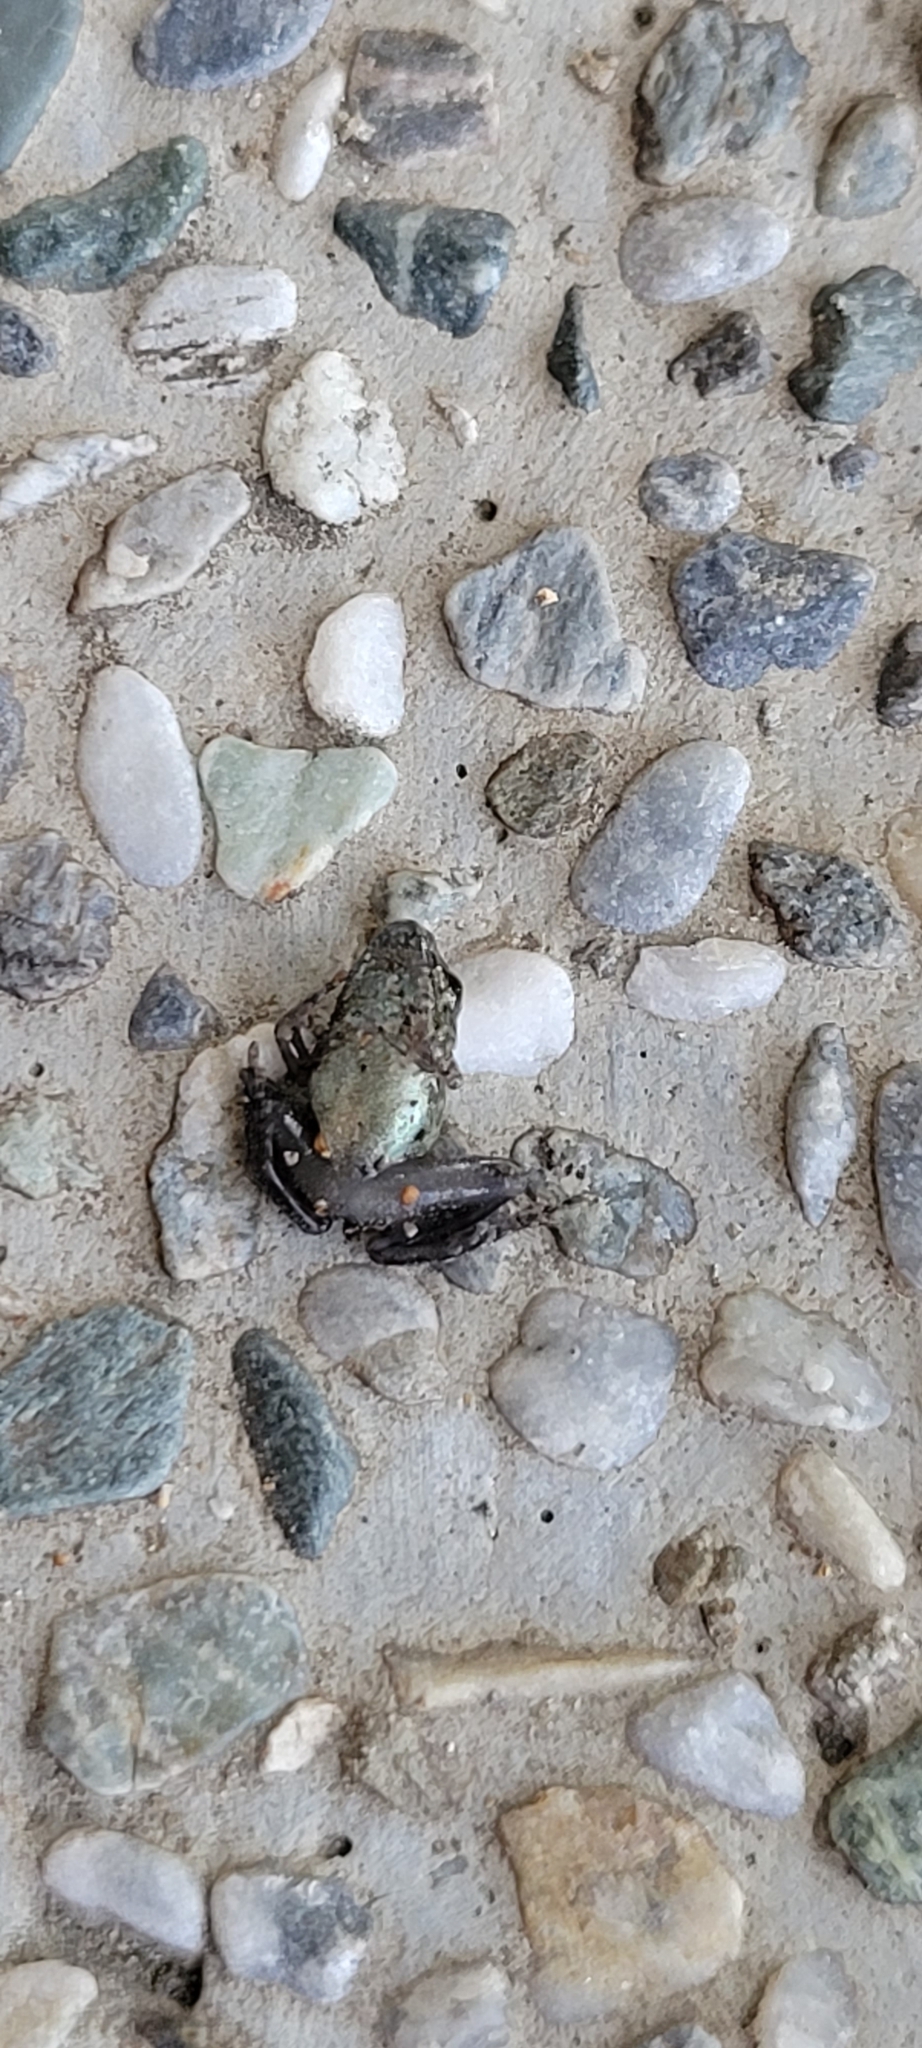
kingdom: Animalia
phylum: Chordata
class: Amphibia
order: Anura
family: Rhacophoridae
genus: Buergeria
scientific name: Buergeria otai
